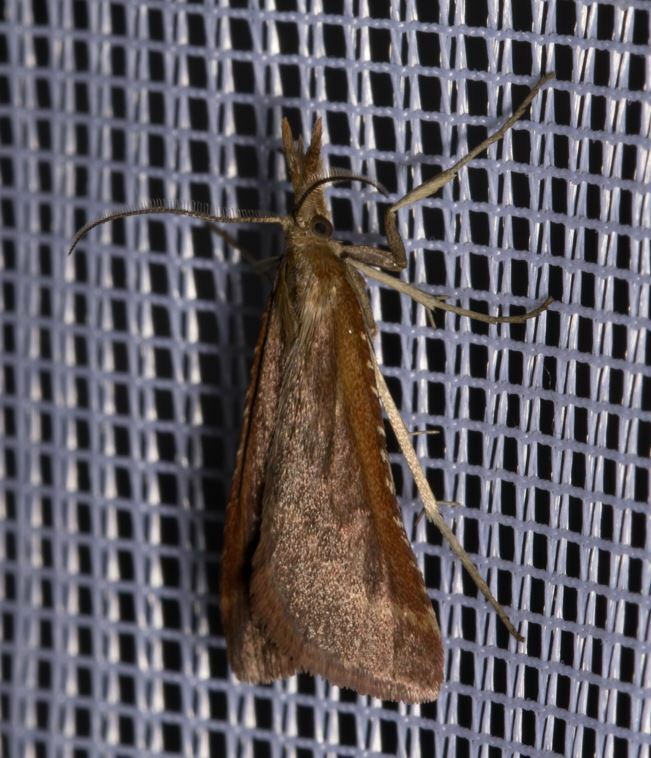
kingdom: Animalia
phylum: Arthropoda
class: Insecta
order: Lepidoptera
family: Pyralidae
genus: Synaphe
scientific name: Synaphe punctalis
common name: Long-legged tabby
